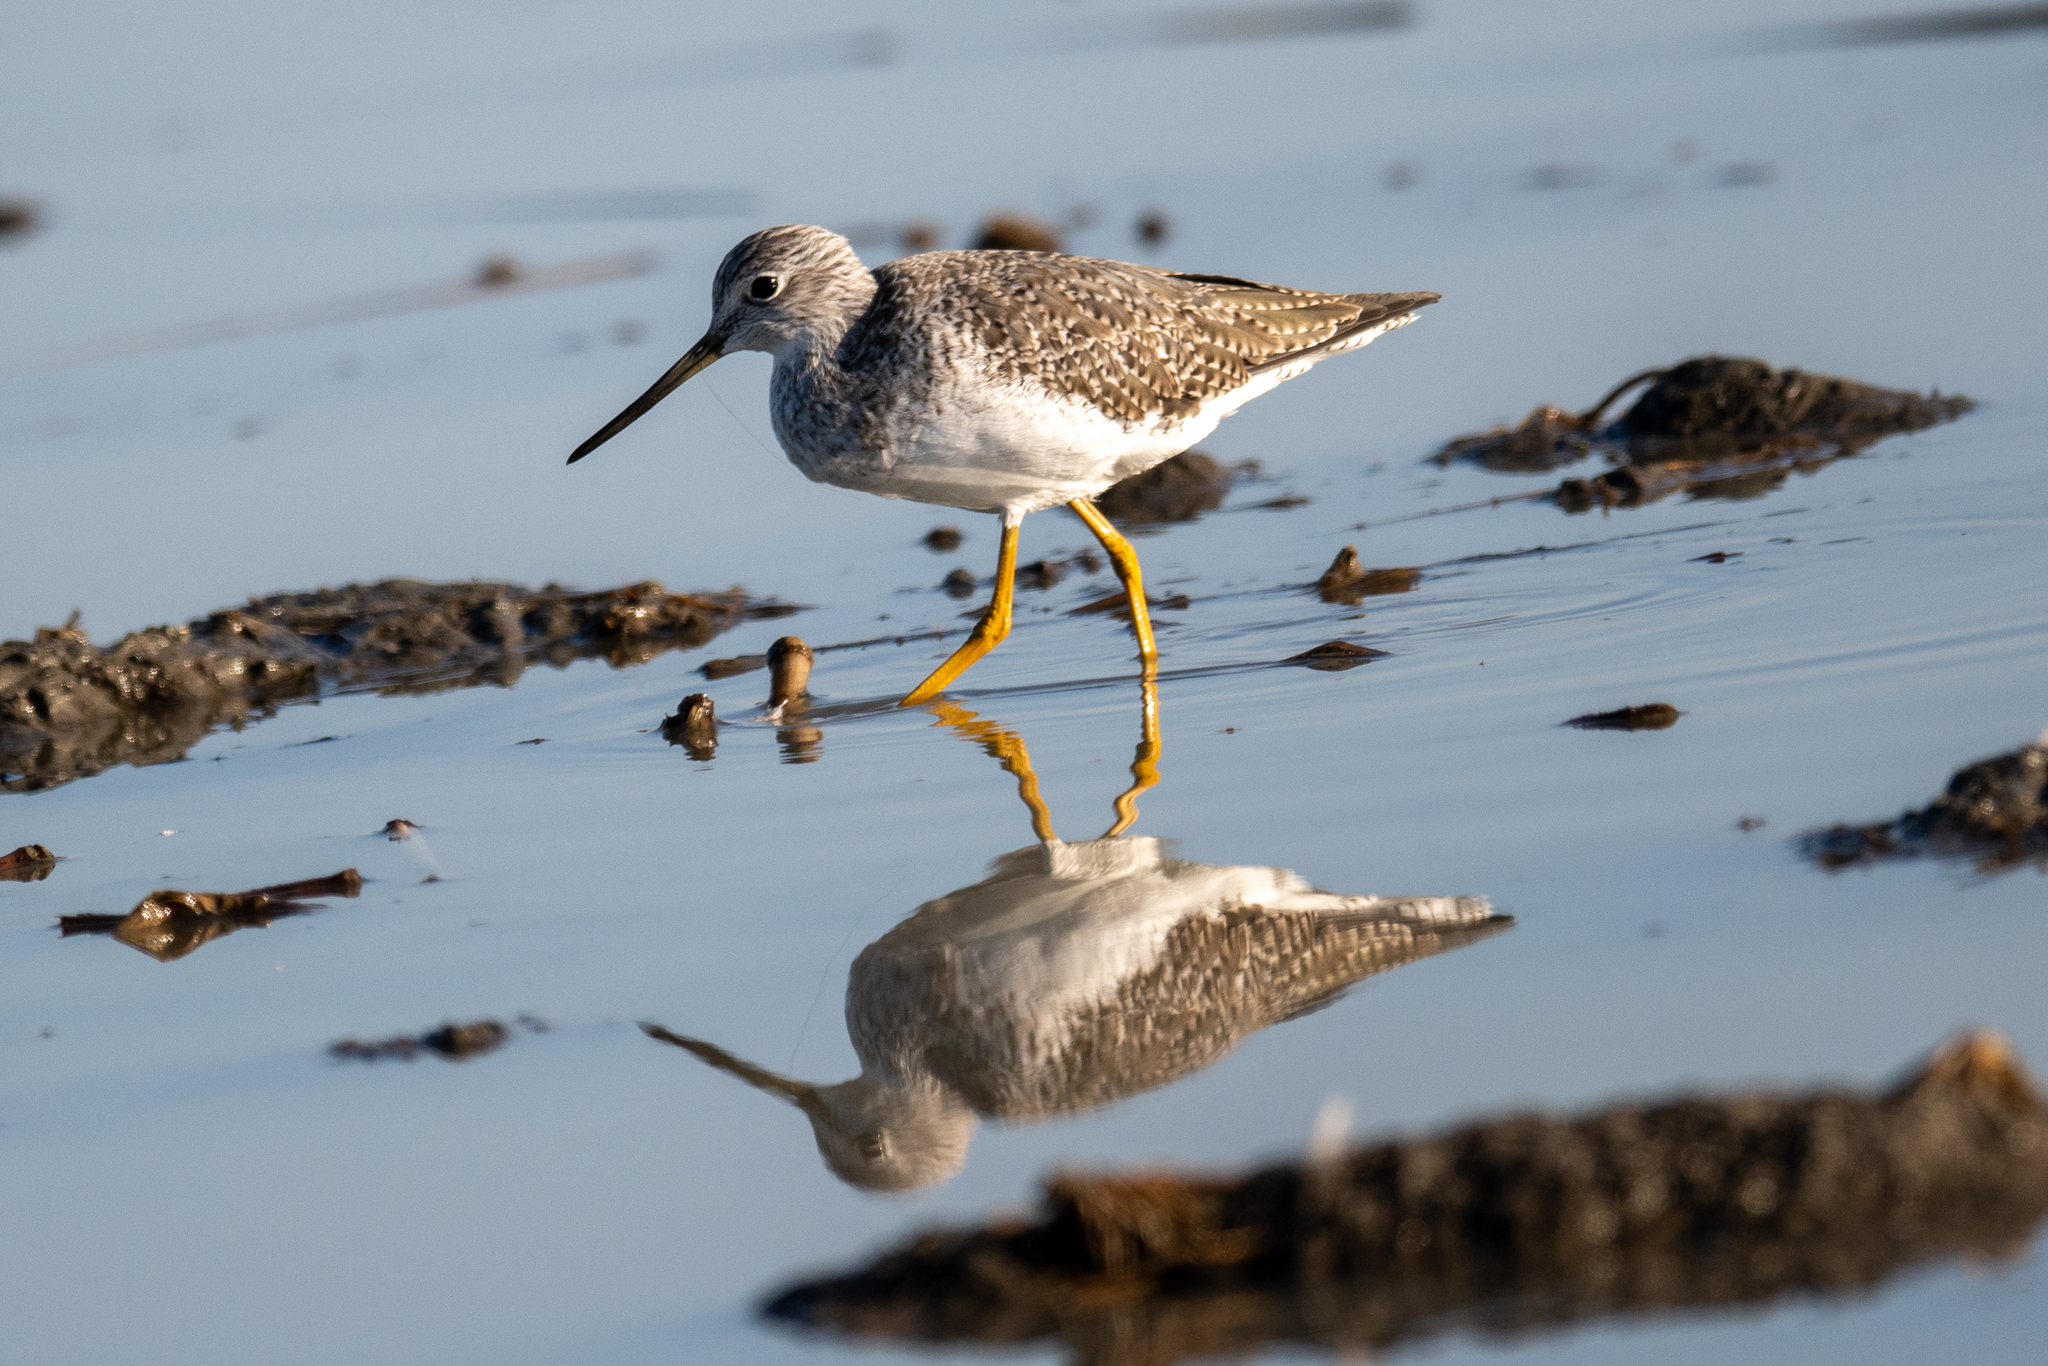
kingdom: Animalia
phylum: Chordata
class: Aves
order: Charadriiformes
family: Scolopacidae
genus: Tringa
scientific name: Tringa melanoleuca
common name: Greater yellowlegs
